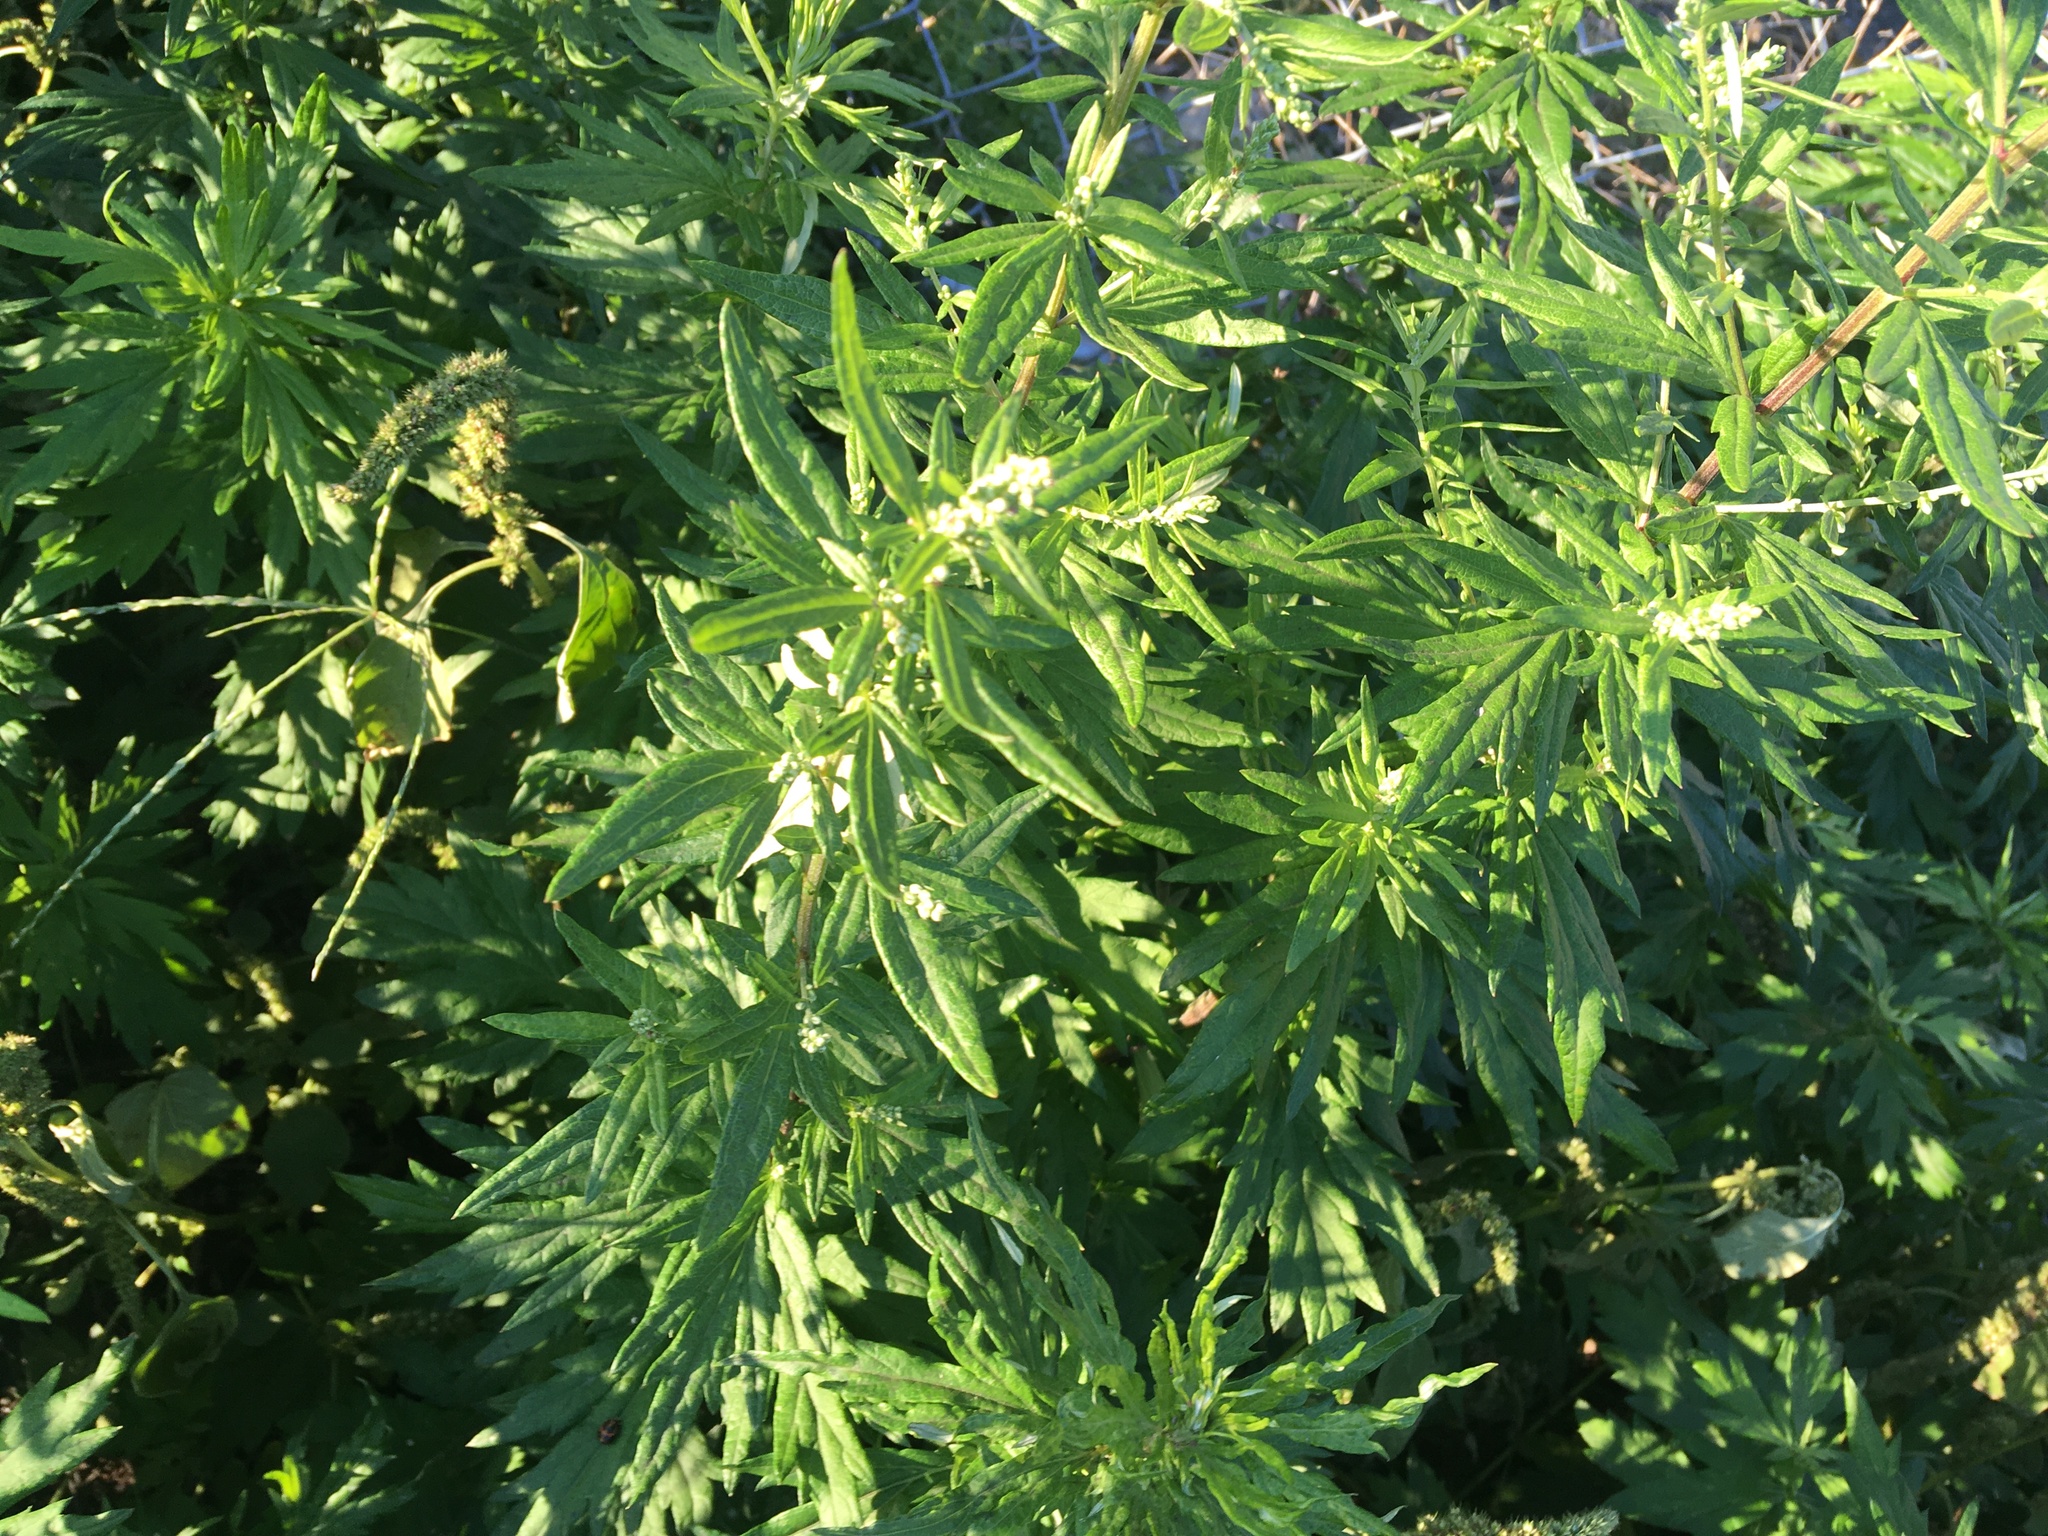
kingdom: Plantae
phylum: Tracheophyta
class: Magnoliopsida
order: Asterales
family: Asteraceae
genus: Artemisia
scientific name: Artemisia vulgaris
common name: Mugwort
